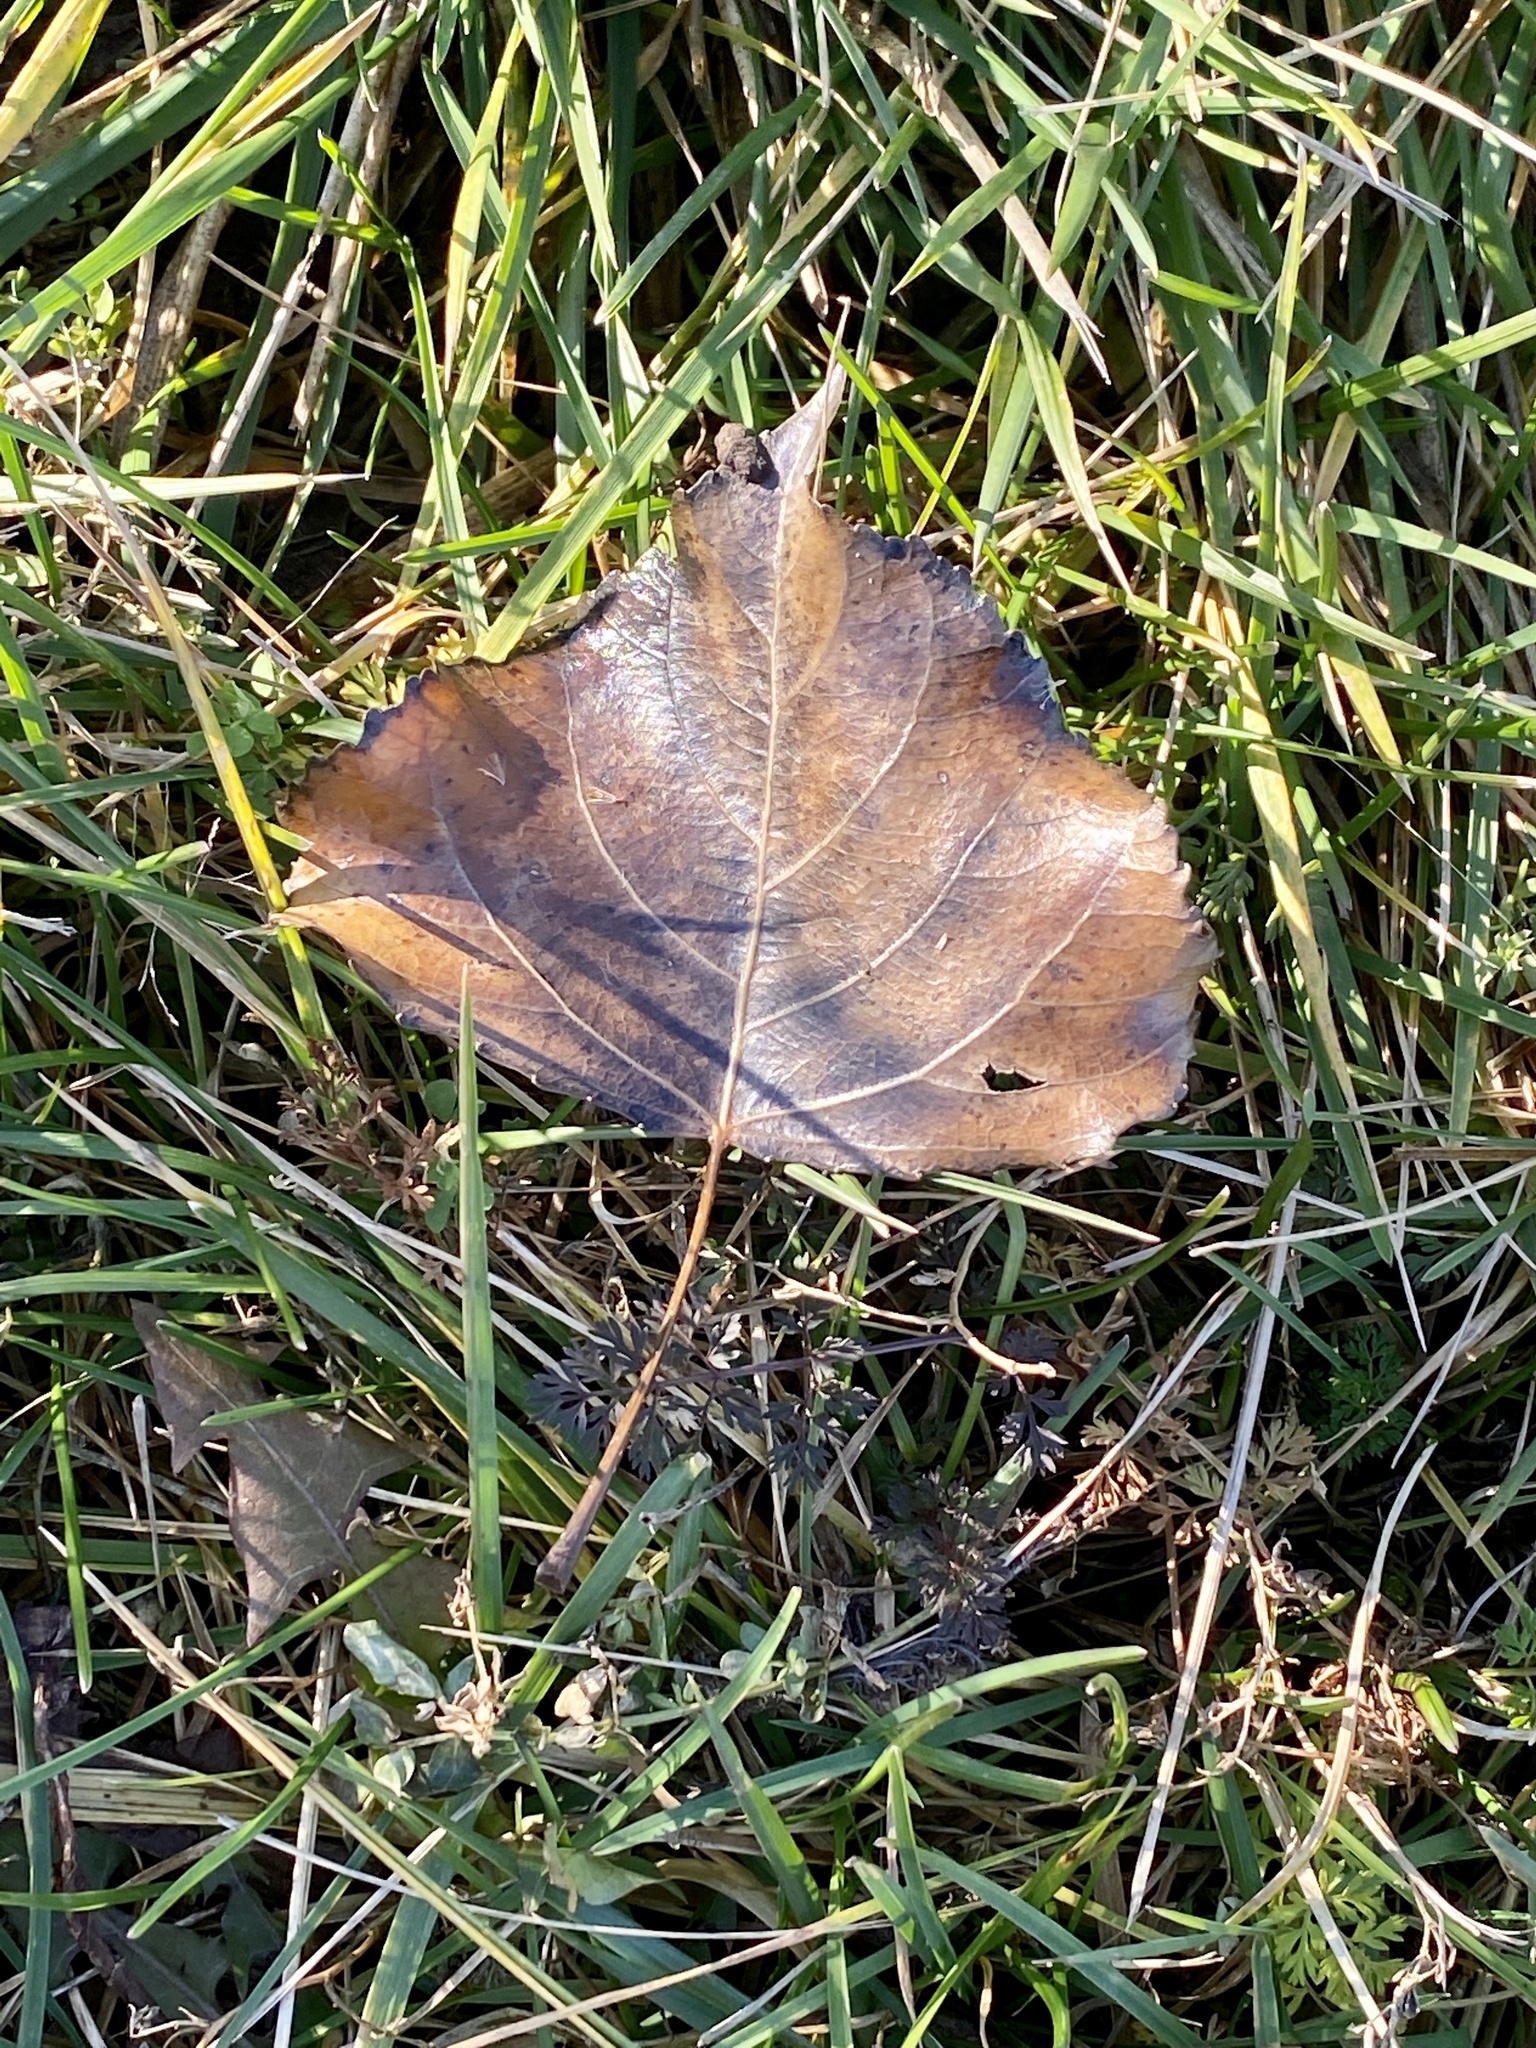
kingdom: Plantae
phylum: Tracheophyta
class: Magnoliopsida
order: Malpighiales
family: Salicaceae
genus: Populus
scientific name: Populus deltoides
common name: Eastern cottonwood
